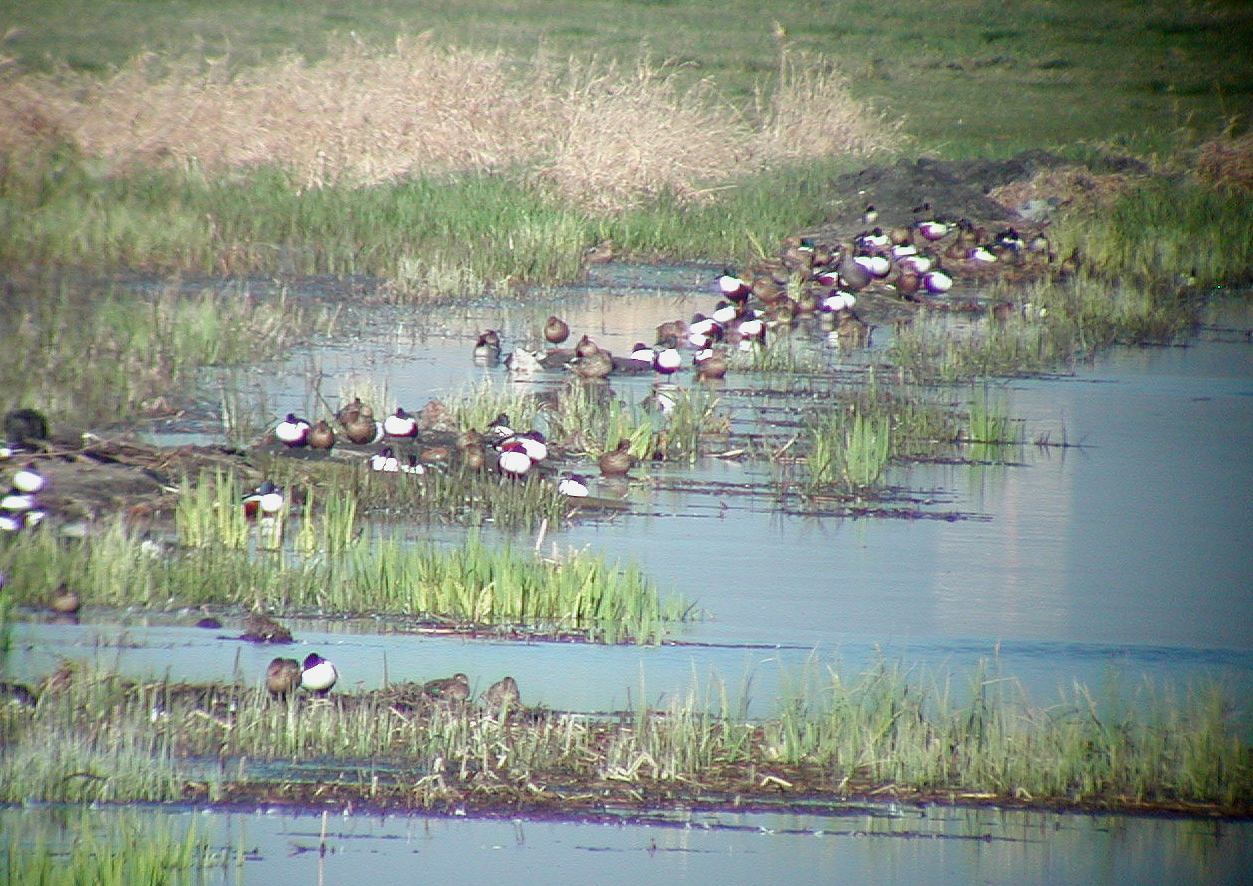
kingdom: Animalia
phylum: Chordata
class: Aves
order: Anseriformes
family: Anatidae
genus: Spatula
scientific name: Spatula clypeata
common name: Northern shoveler
